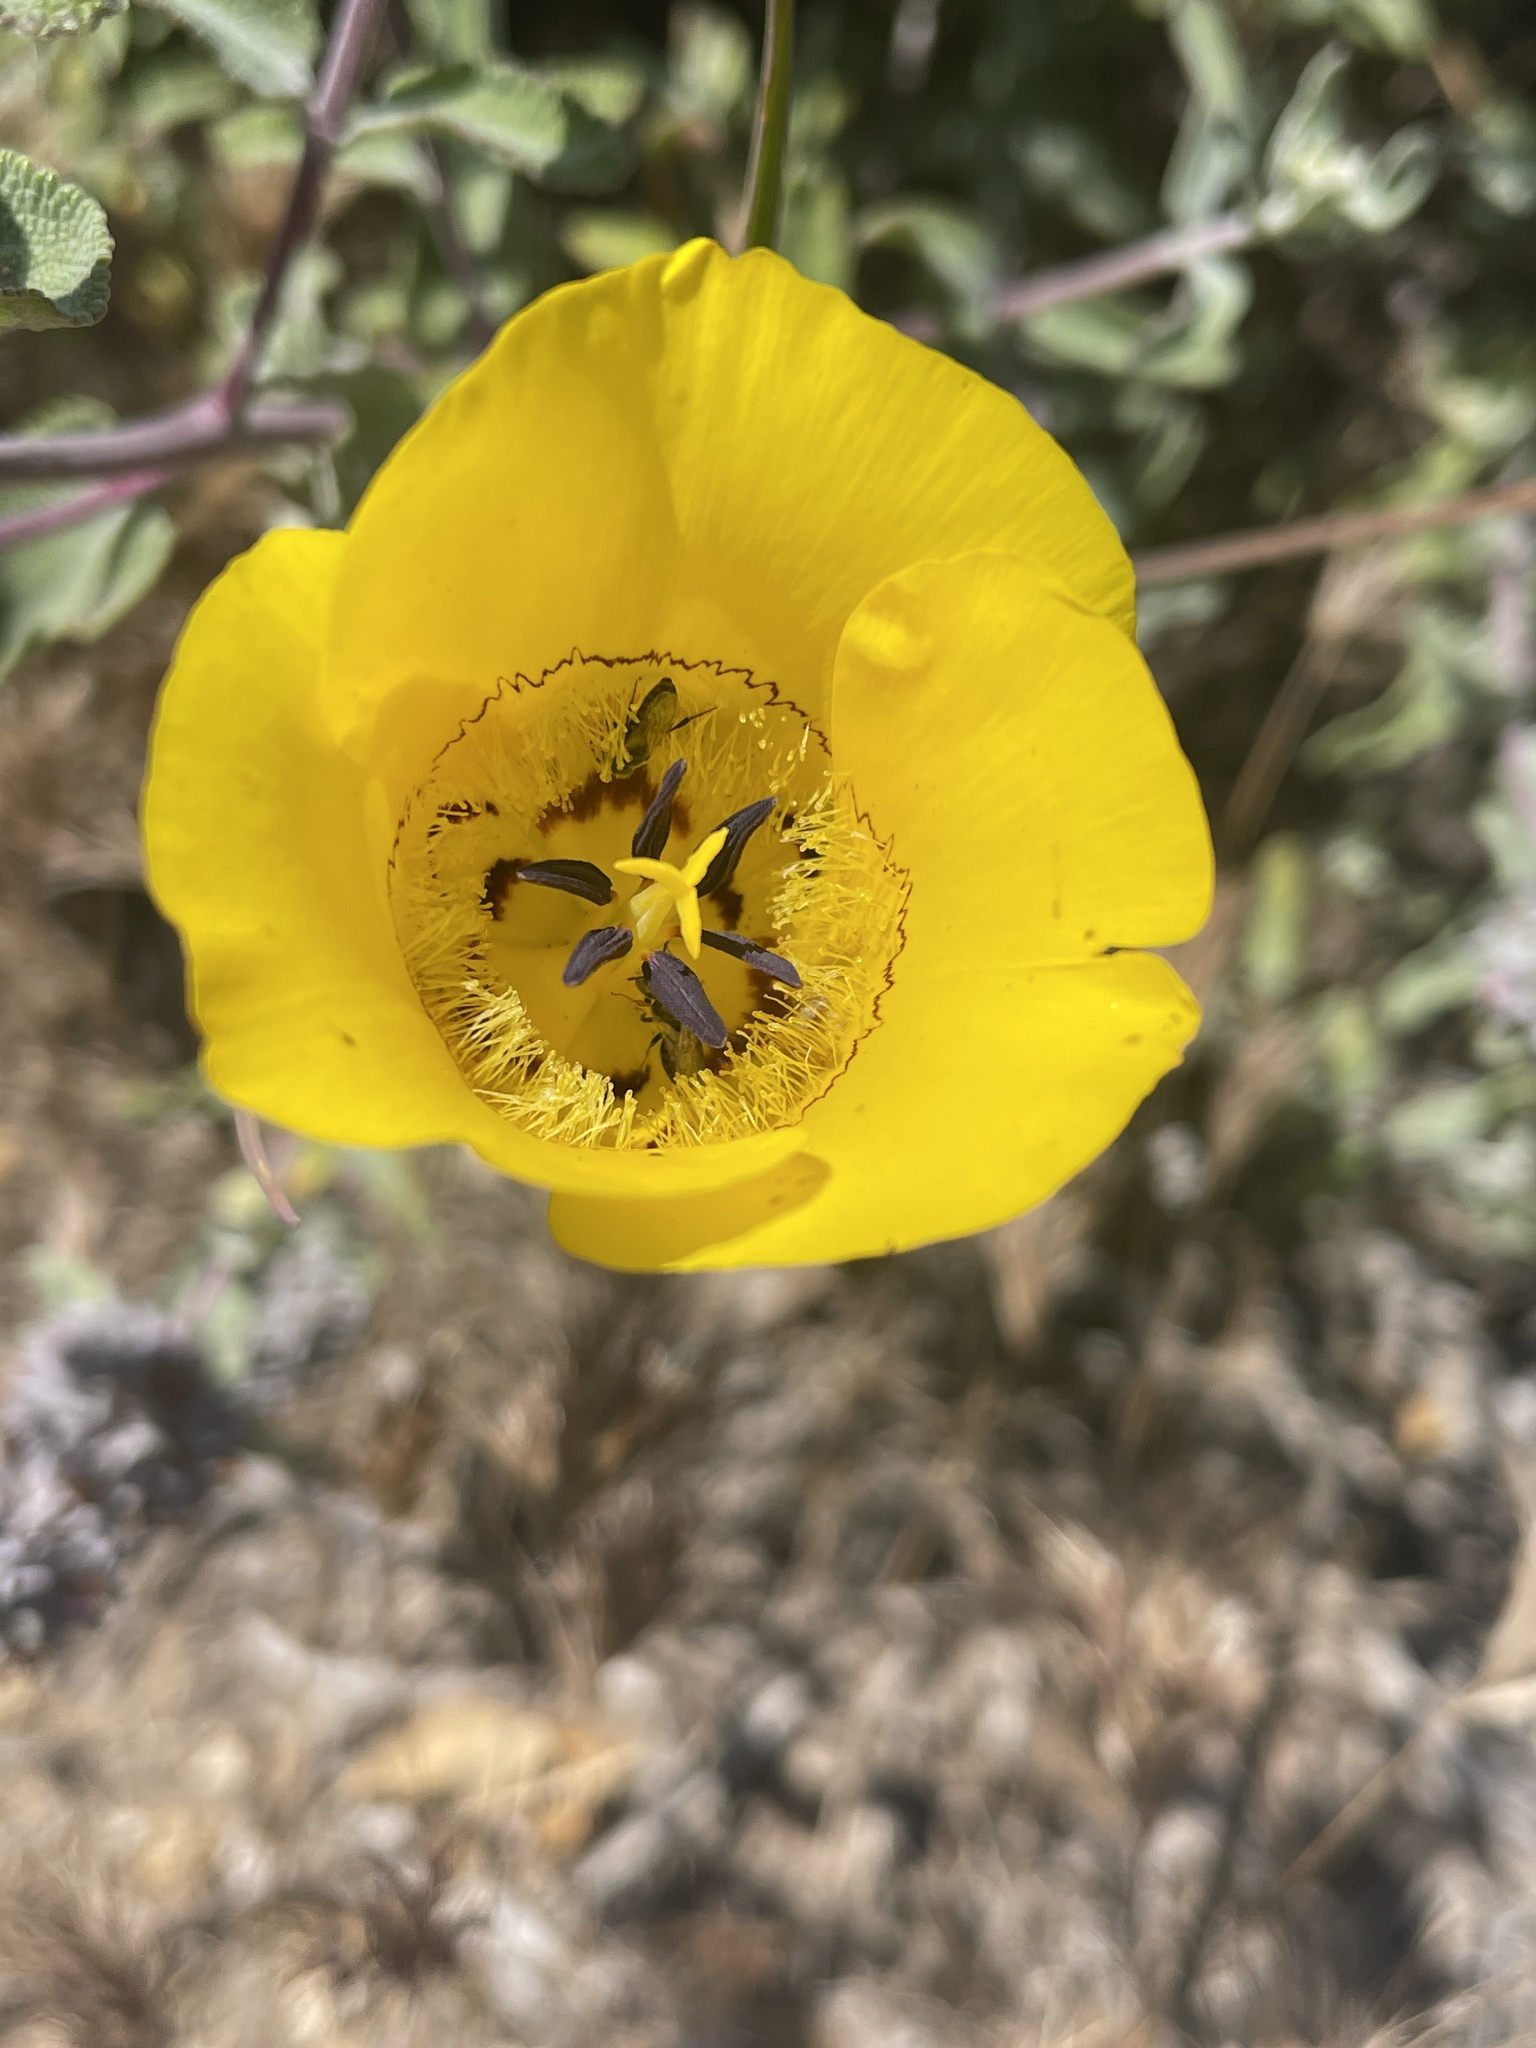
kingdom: Plantae
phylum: Tracheophyta
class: Liliopsida
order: Liliales
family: Liliaceae
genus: Calochortus
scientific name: Calochortus clavatus
